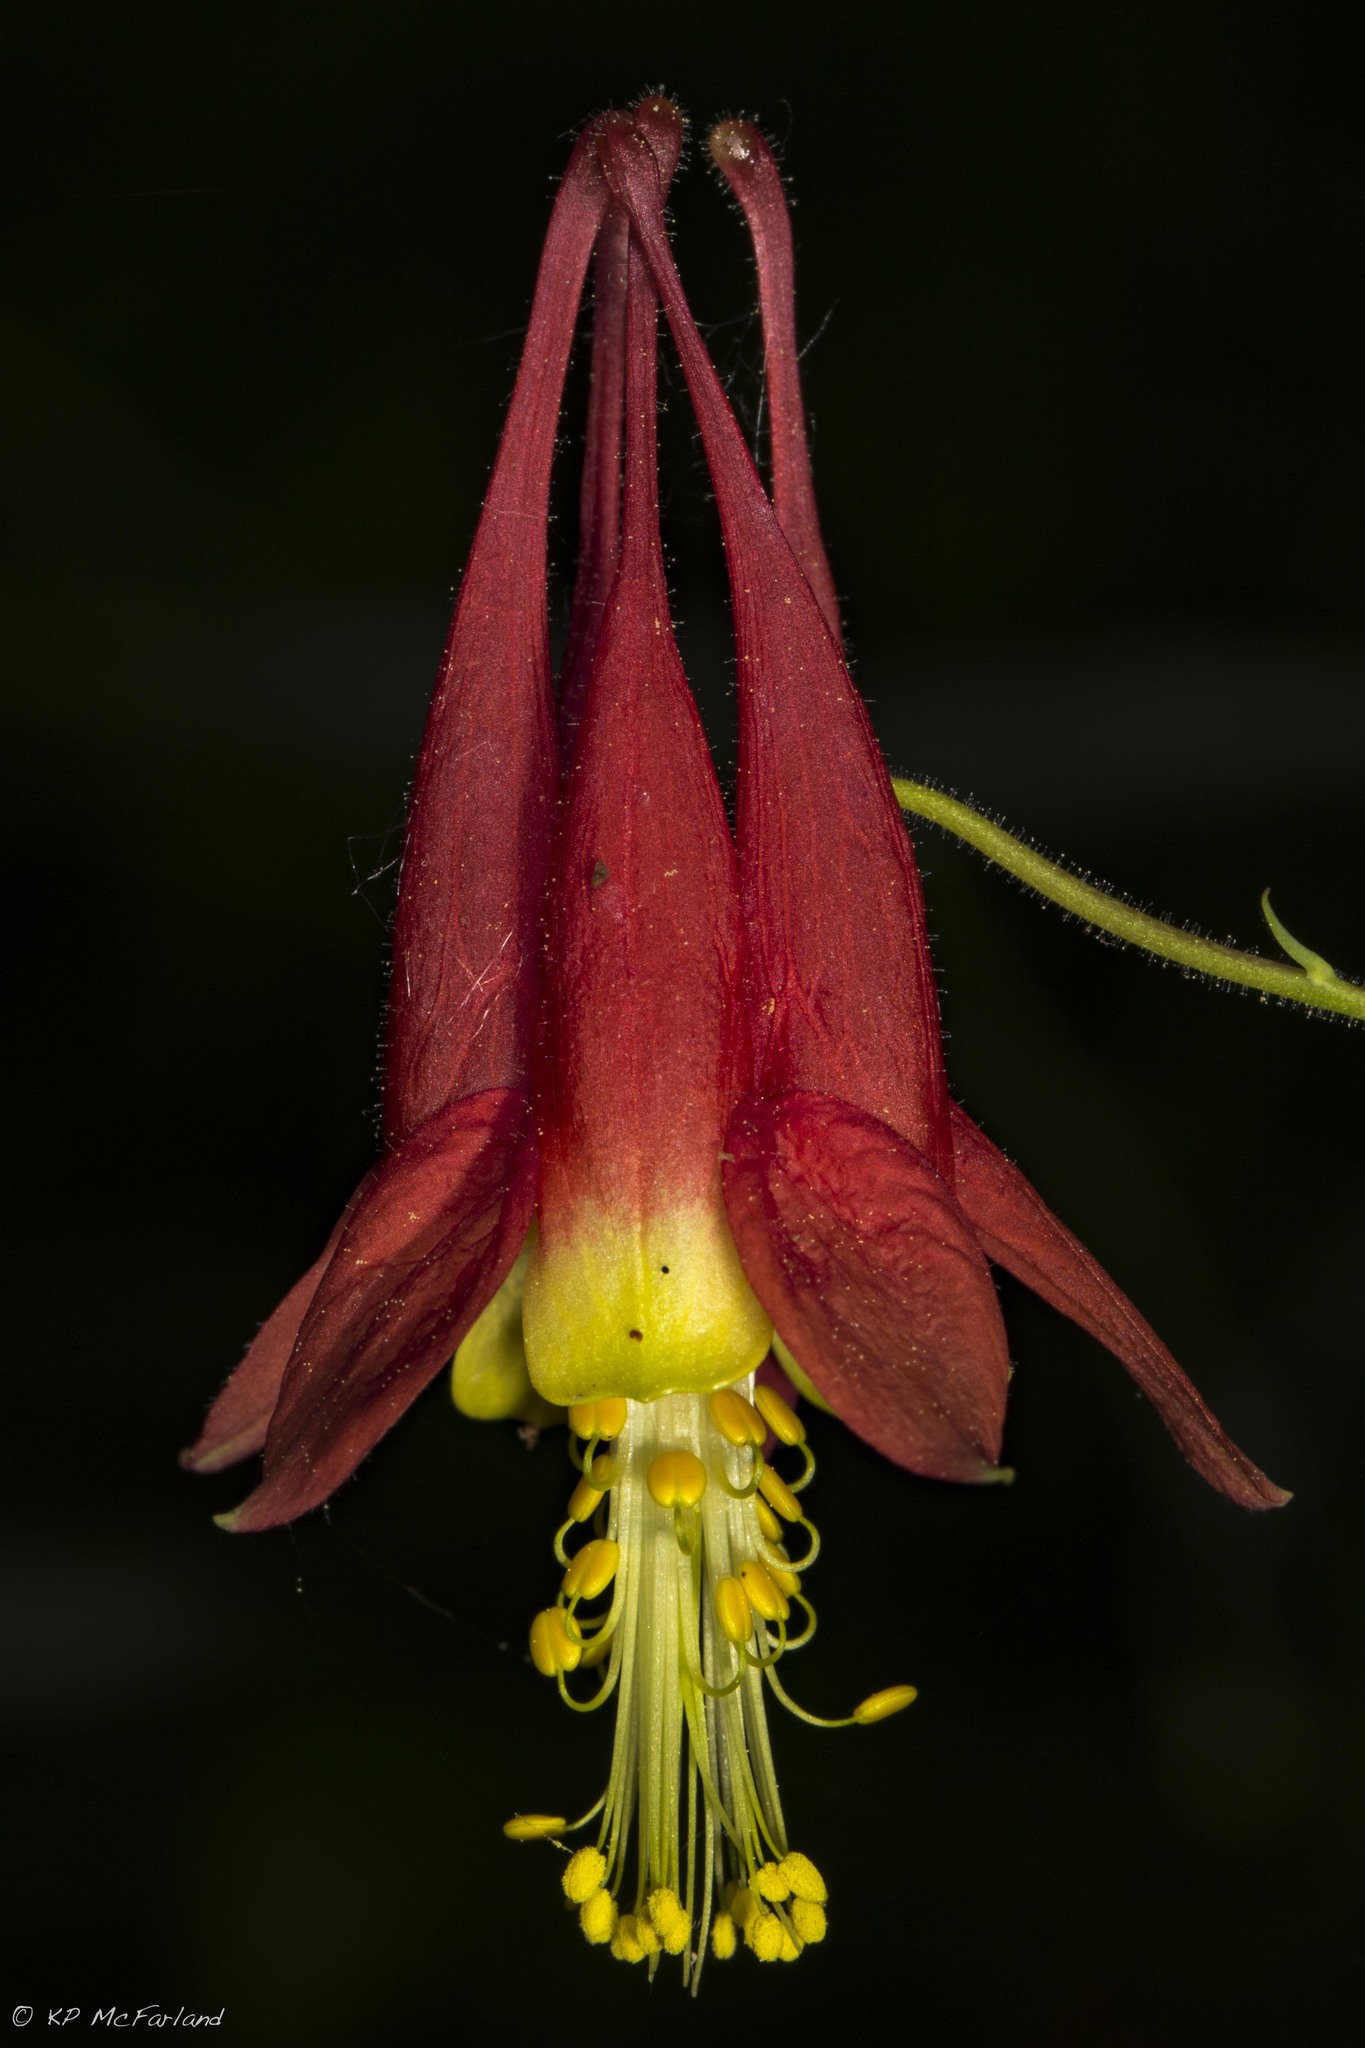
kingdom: Plantae
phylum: Tracheophyta
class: Magnoliopsida
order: Ranunculales
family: Ranunculaceae
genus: Aquilegia
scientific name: Aquilegia canadensis
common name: American columbine
